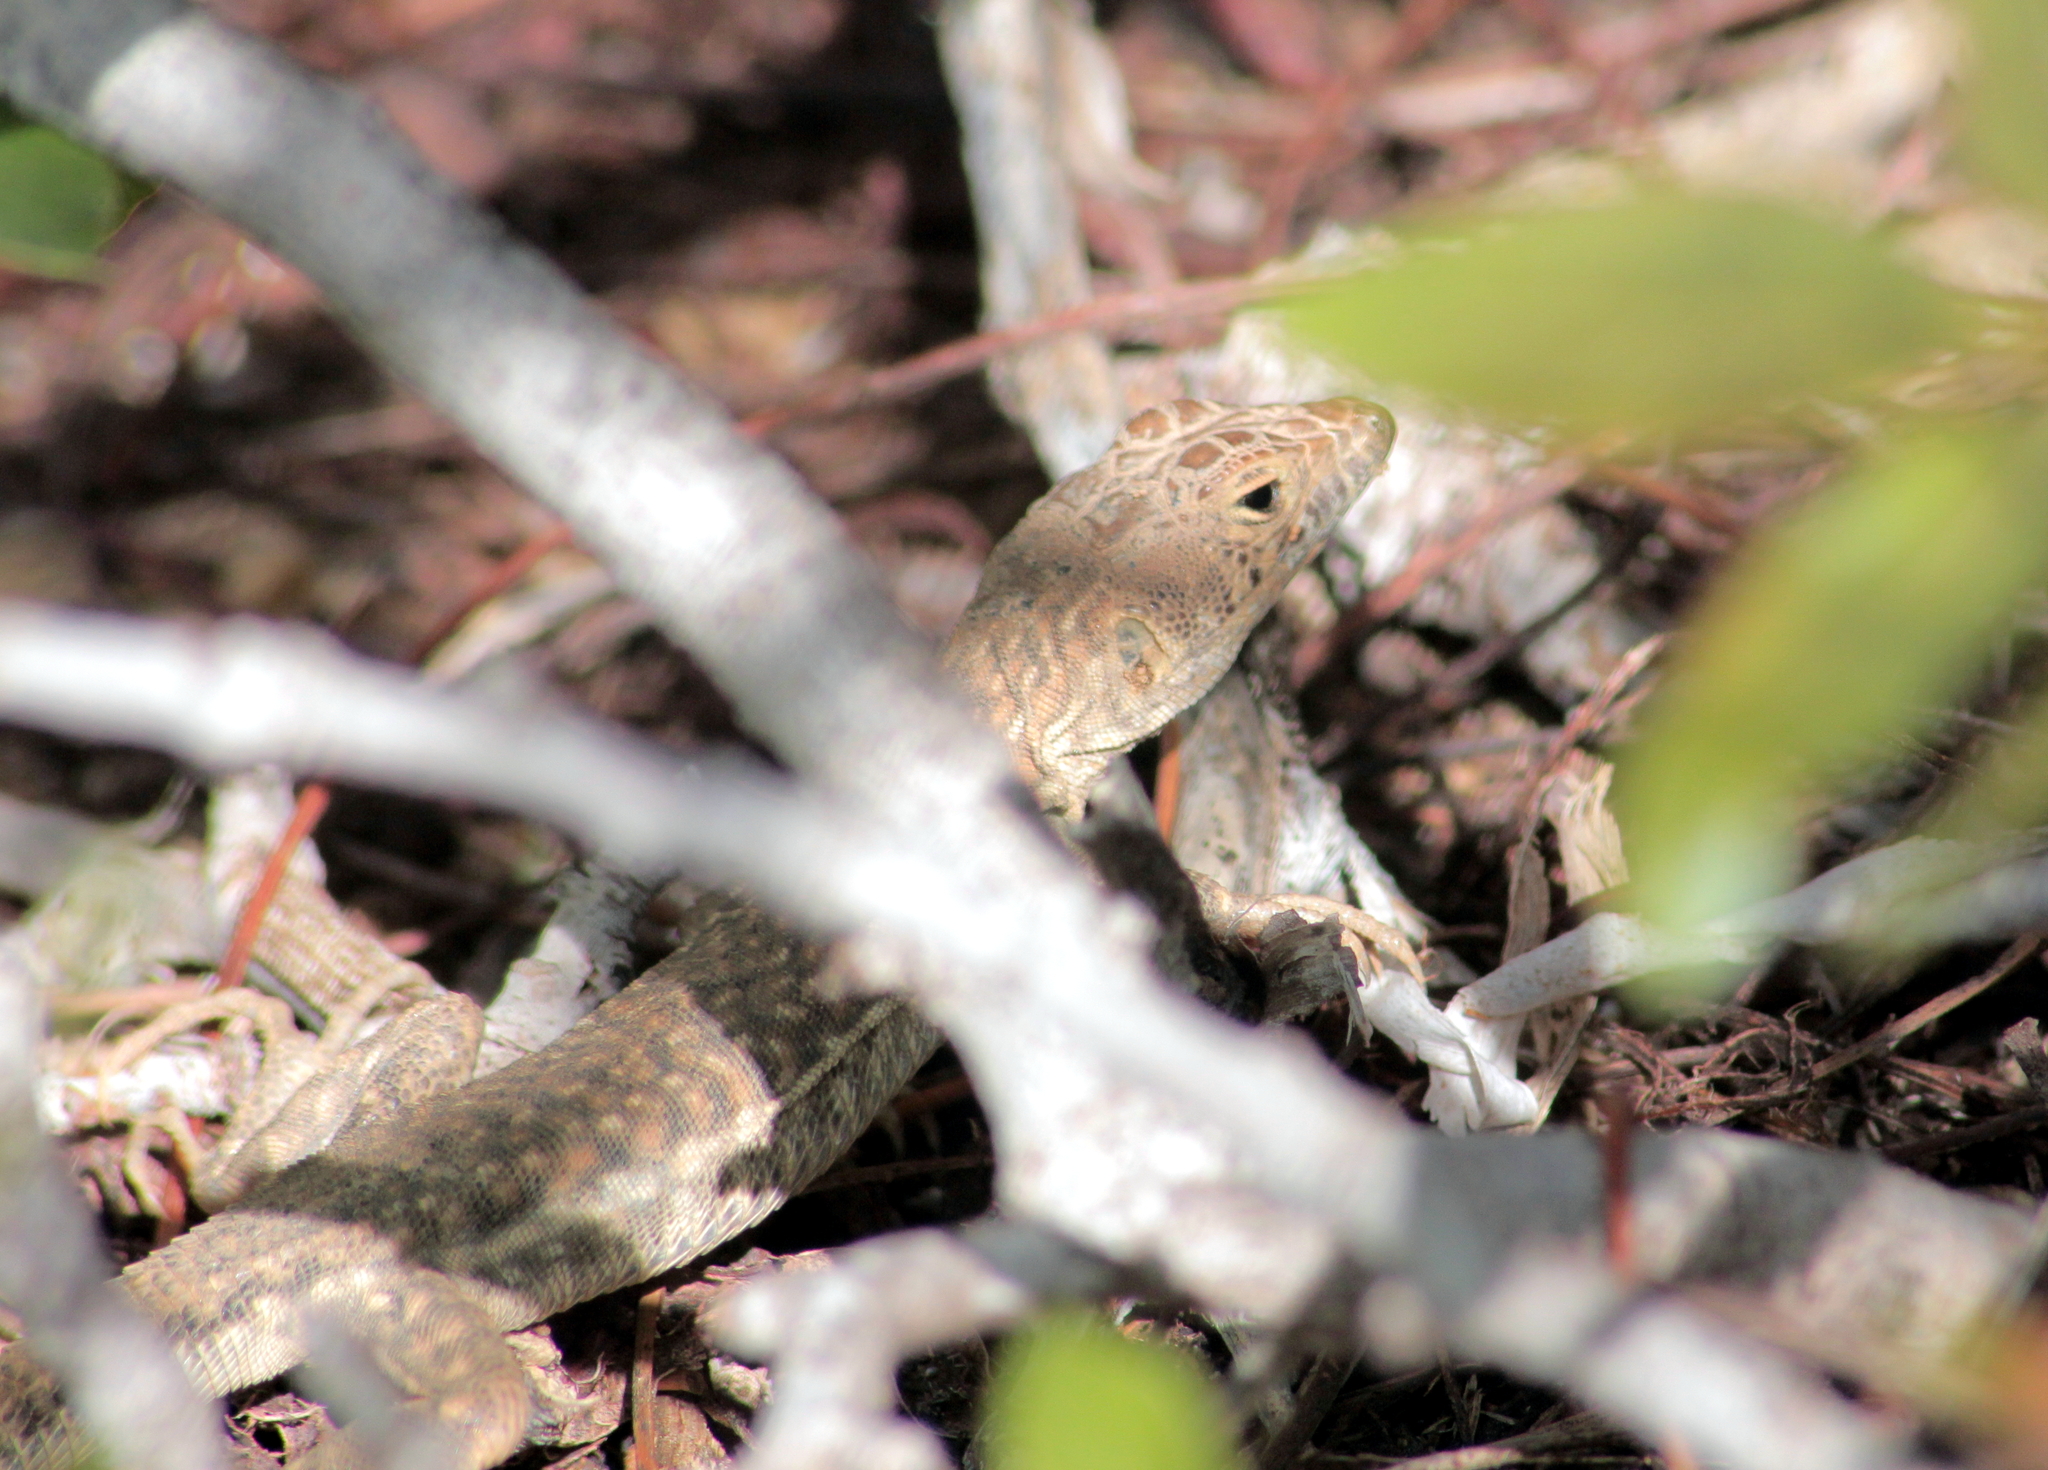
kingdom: Animalia
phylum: Chordata
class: Squamata
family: Lacertidae
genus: Acanthodactylus
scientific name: Acanthodactylus schreiberi
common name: Schreiber's fringe-fingered lizard
